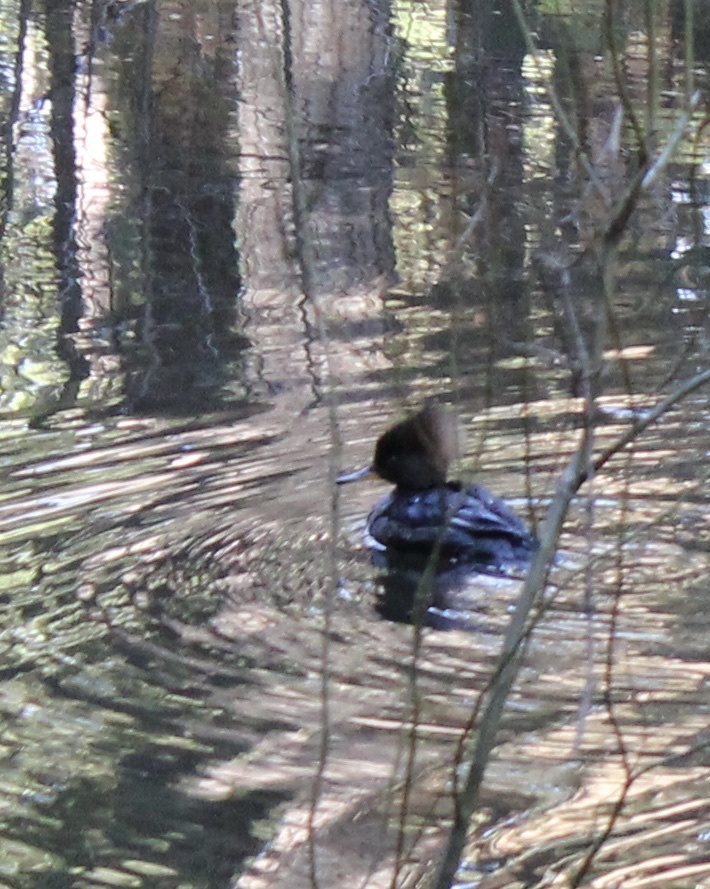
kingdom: Animalia
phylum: Chordata
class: Aves
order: Anseriformes
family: Anatidae
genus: Lophodytes
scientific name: Lophodytes cucullatus
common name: Hooded merganser
